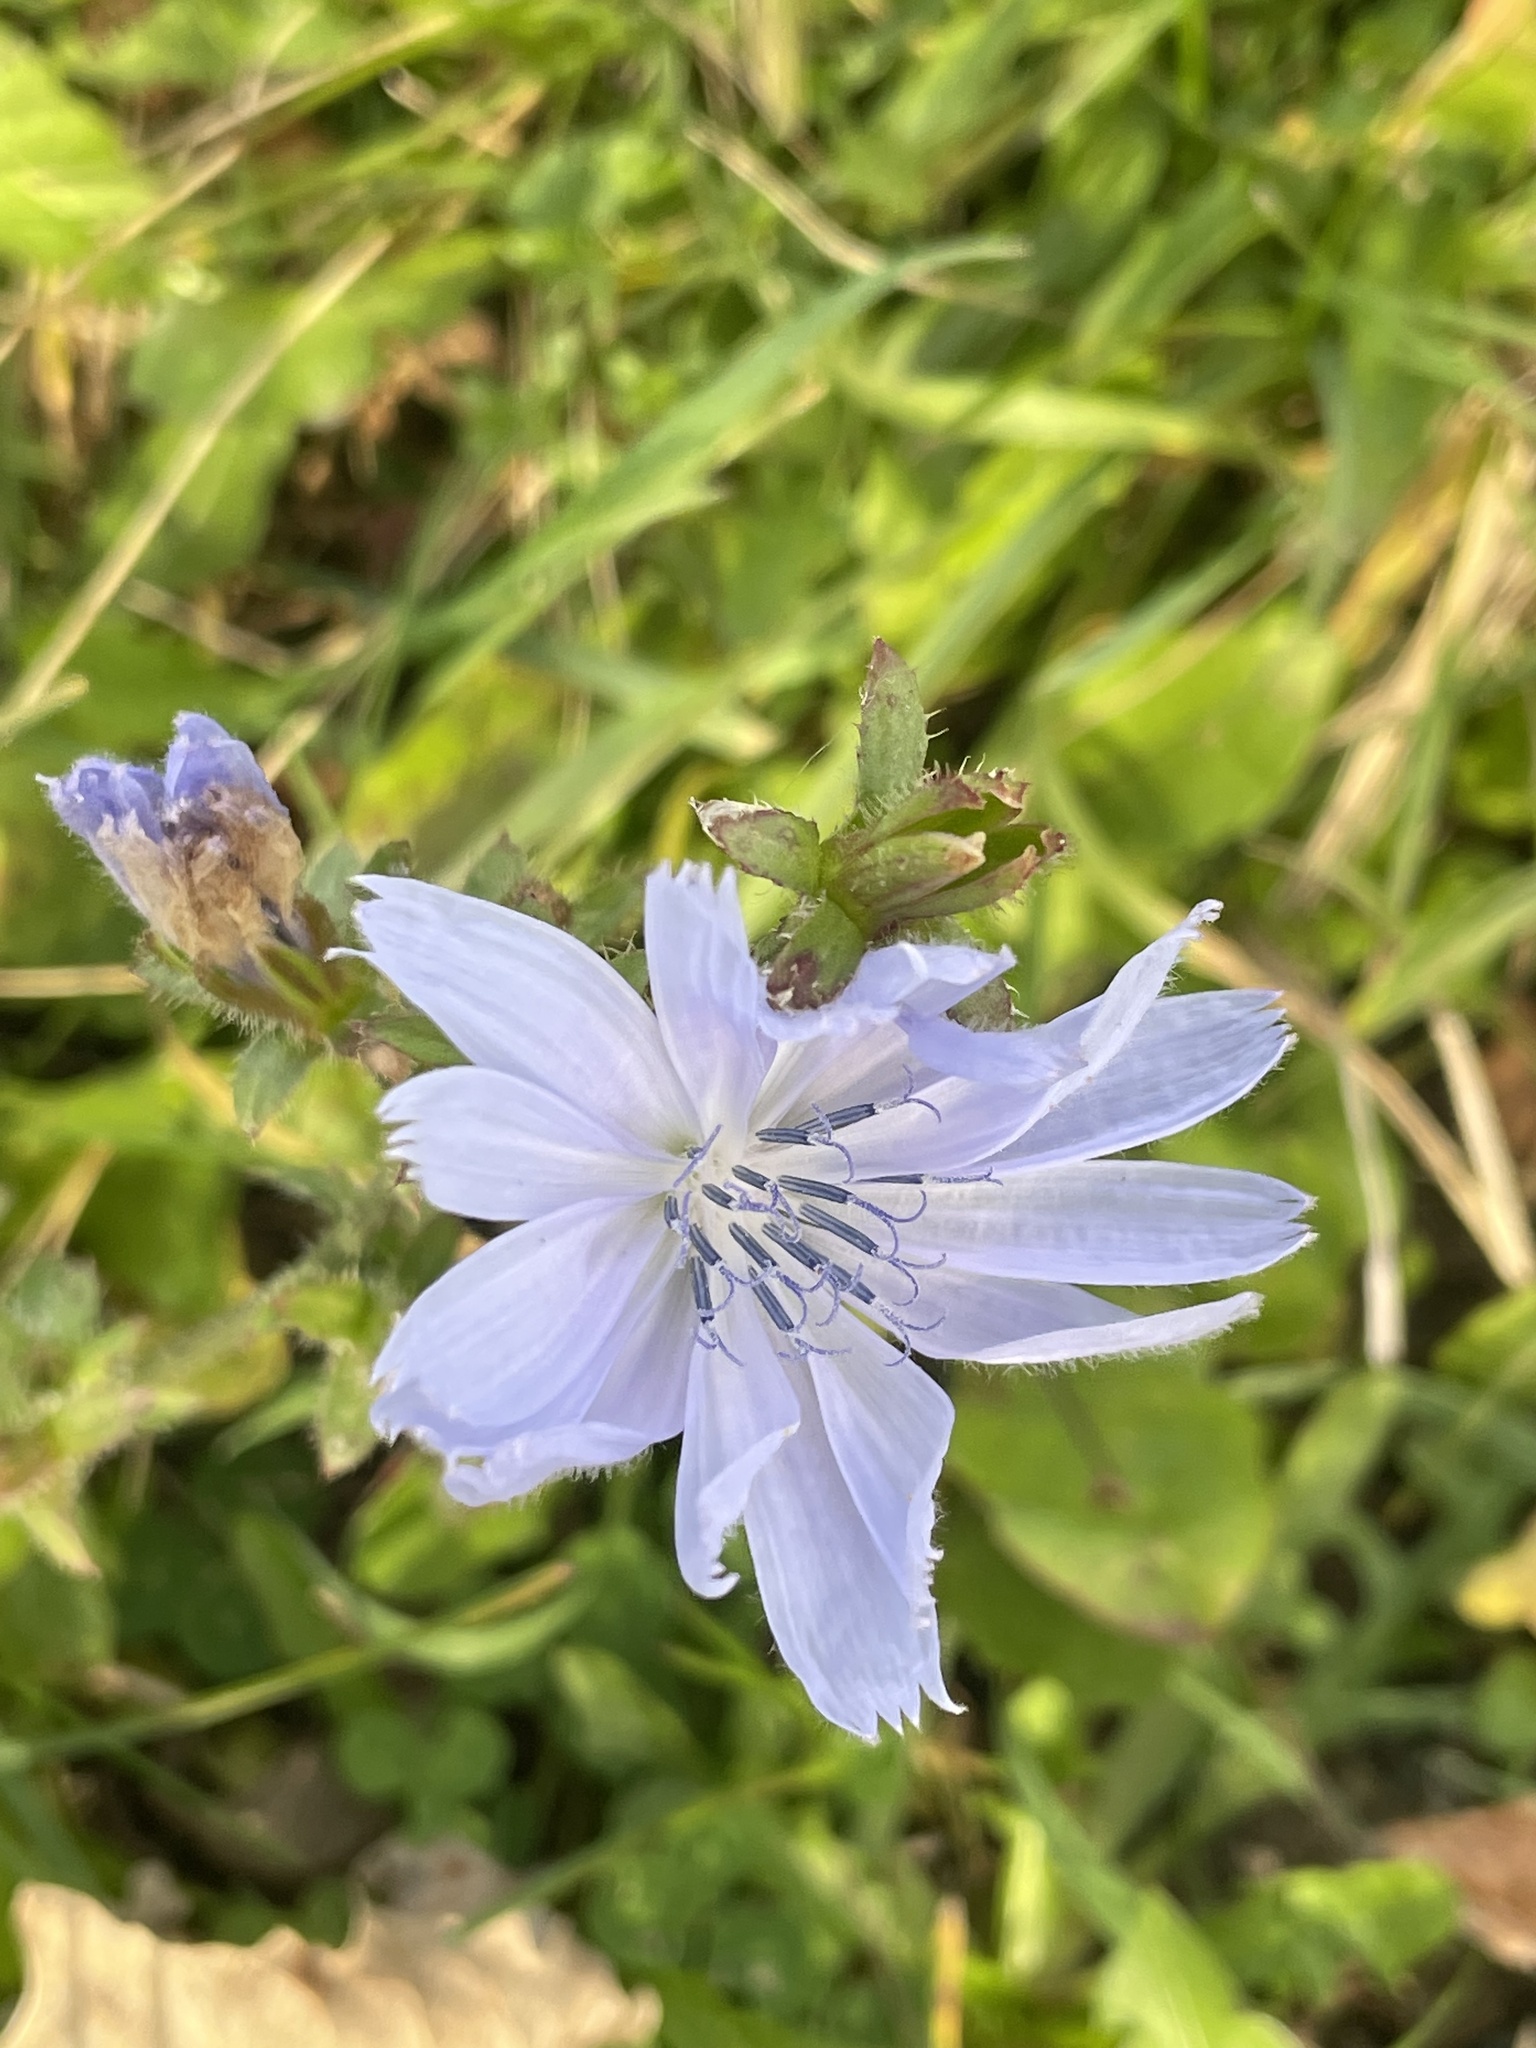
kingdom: Plantae
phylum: Tracheophyta
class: Magnoliopsida
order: Asterales
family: Asteraceae
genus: Cichorium
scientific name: Cichorium intybus
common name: Chicory
